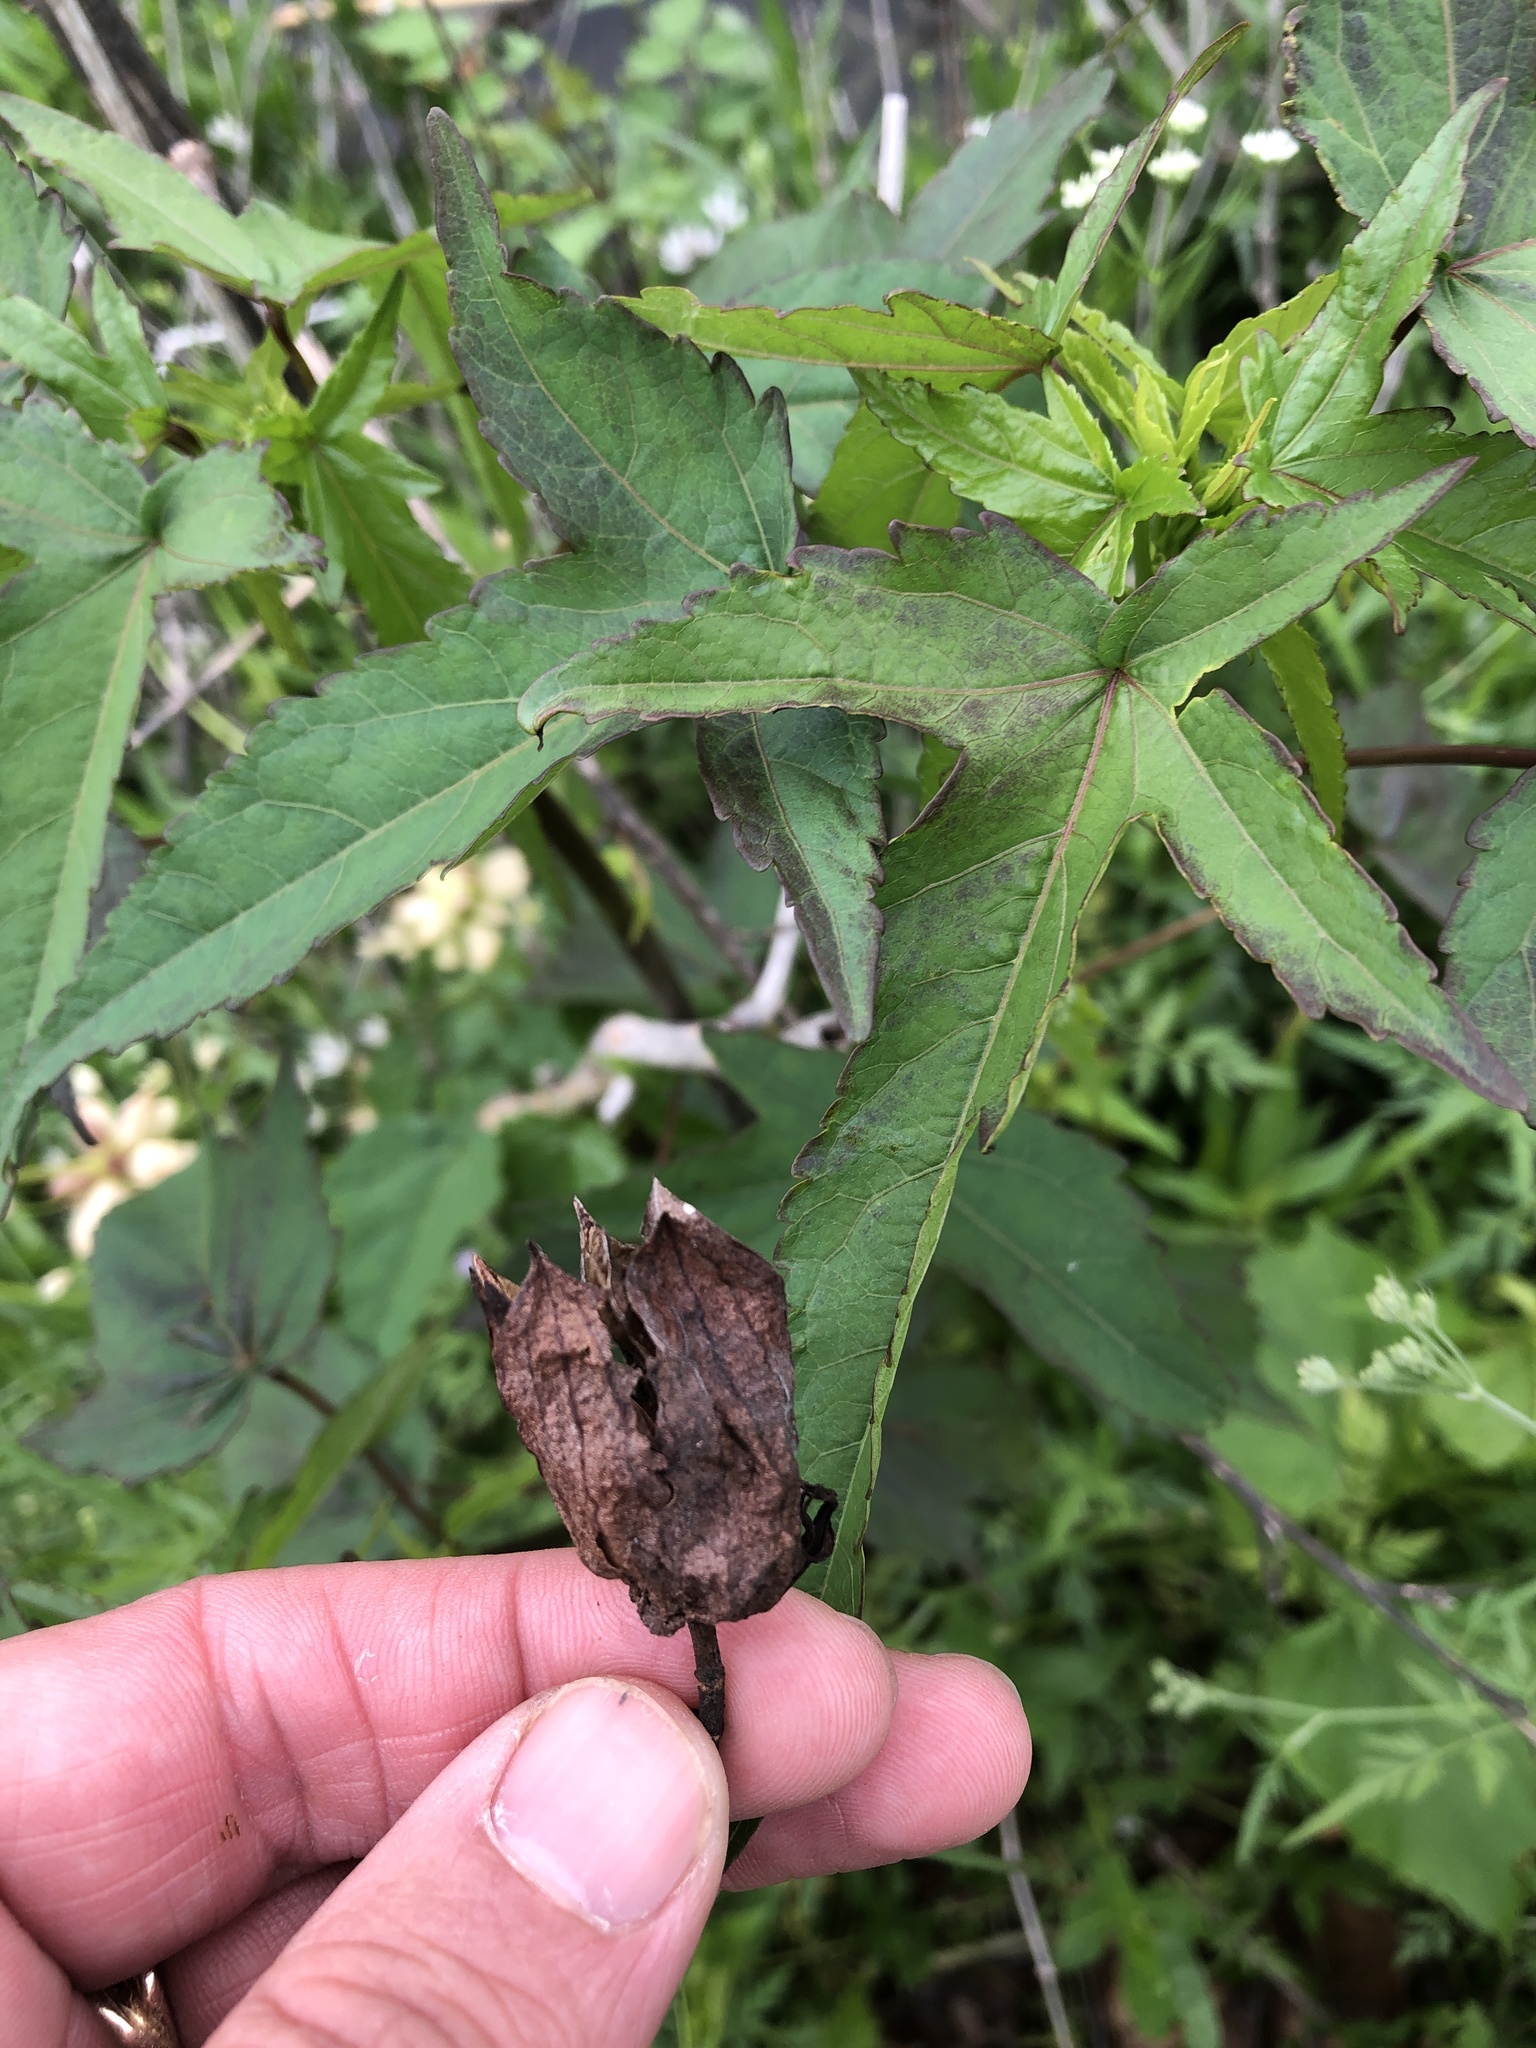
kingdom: Plantae
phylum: Tracheophyta
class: Magnoliopsida
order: Malvales
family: Malvaceae
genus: Hibiscus
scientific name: Hibiscus laevis
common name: Scarlet rose-mallow
